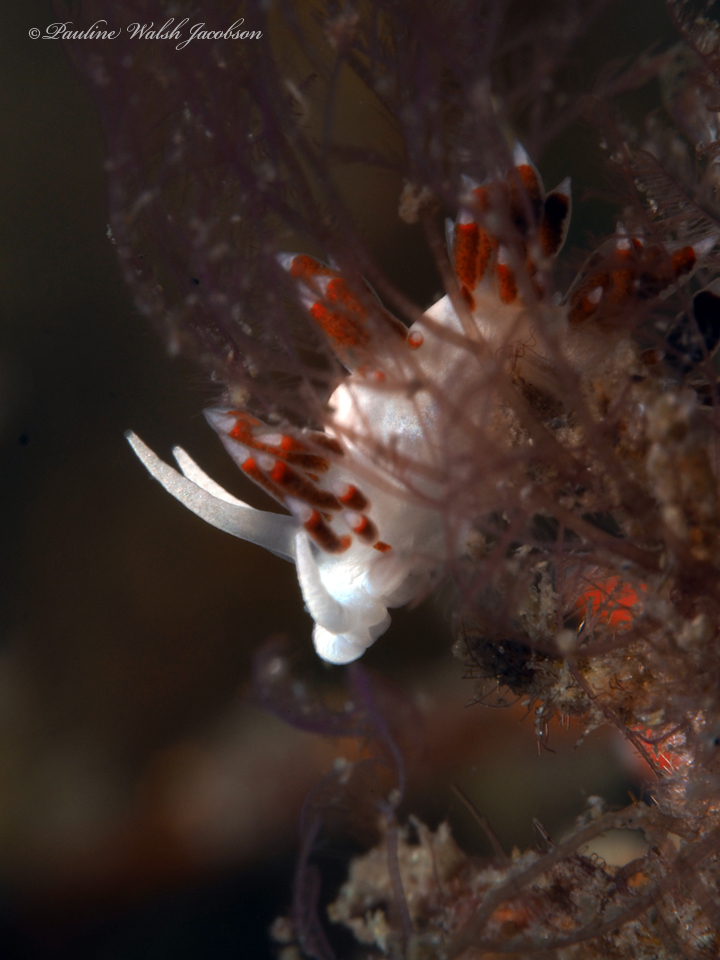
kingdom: Animalia
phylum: Mollusca
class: Gastropoda
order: Nudibranchia
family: Flabellinidae
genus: Flabellina
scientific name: Flabellina dushia
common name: Dushia flabellina
